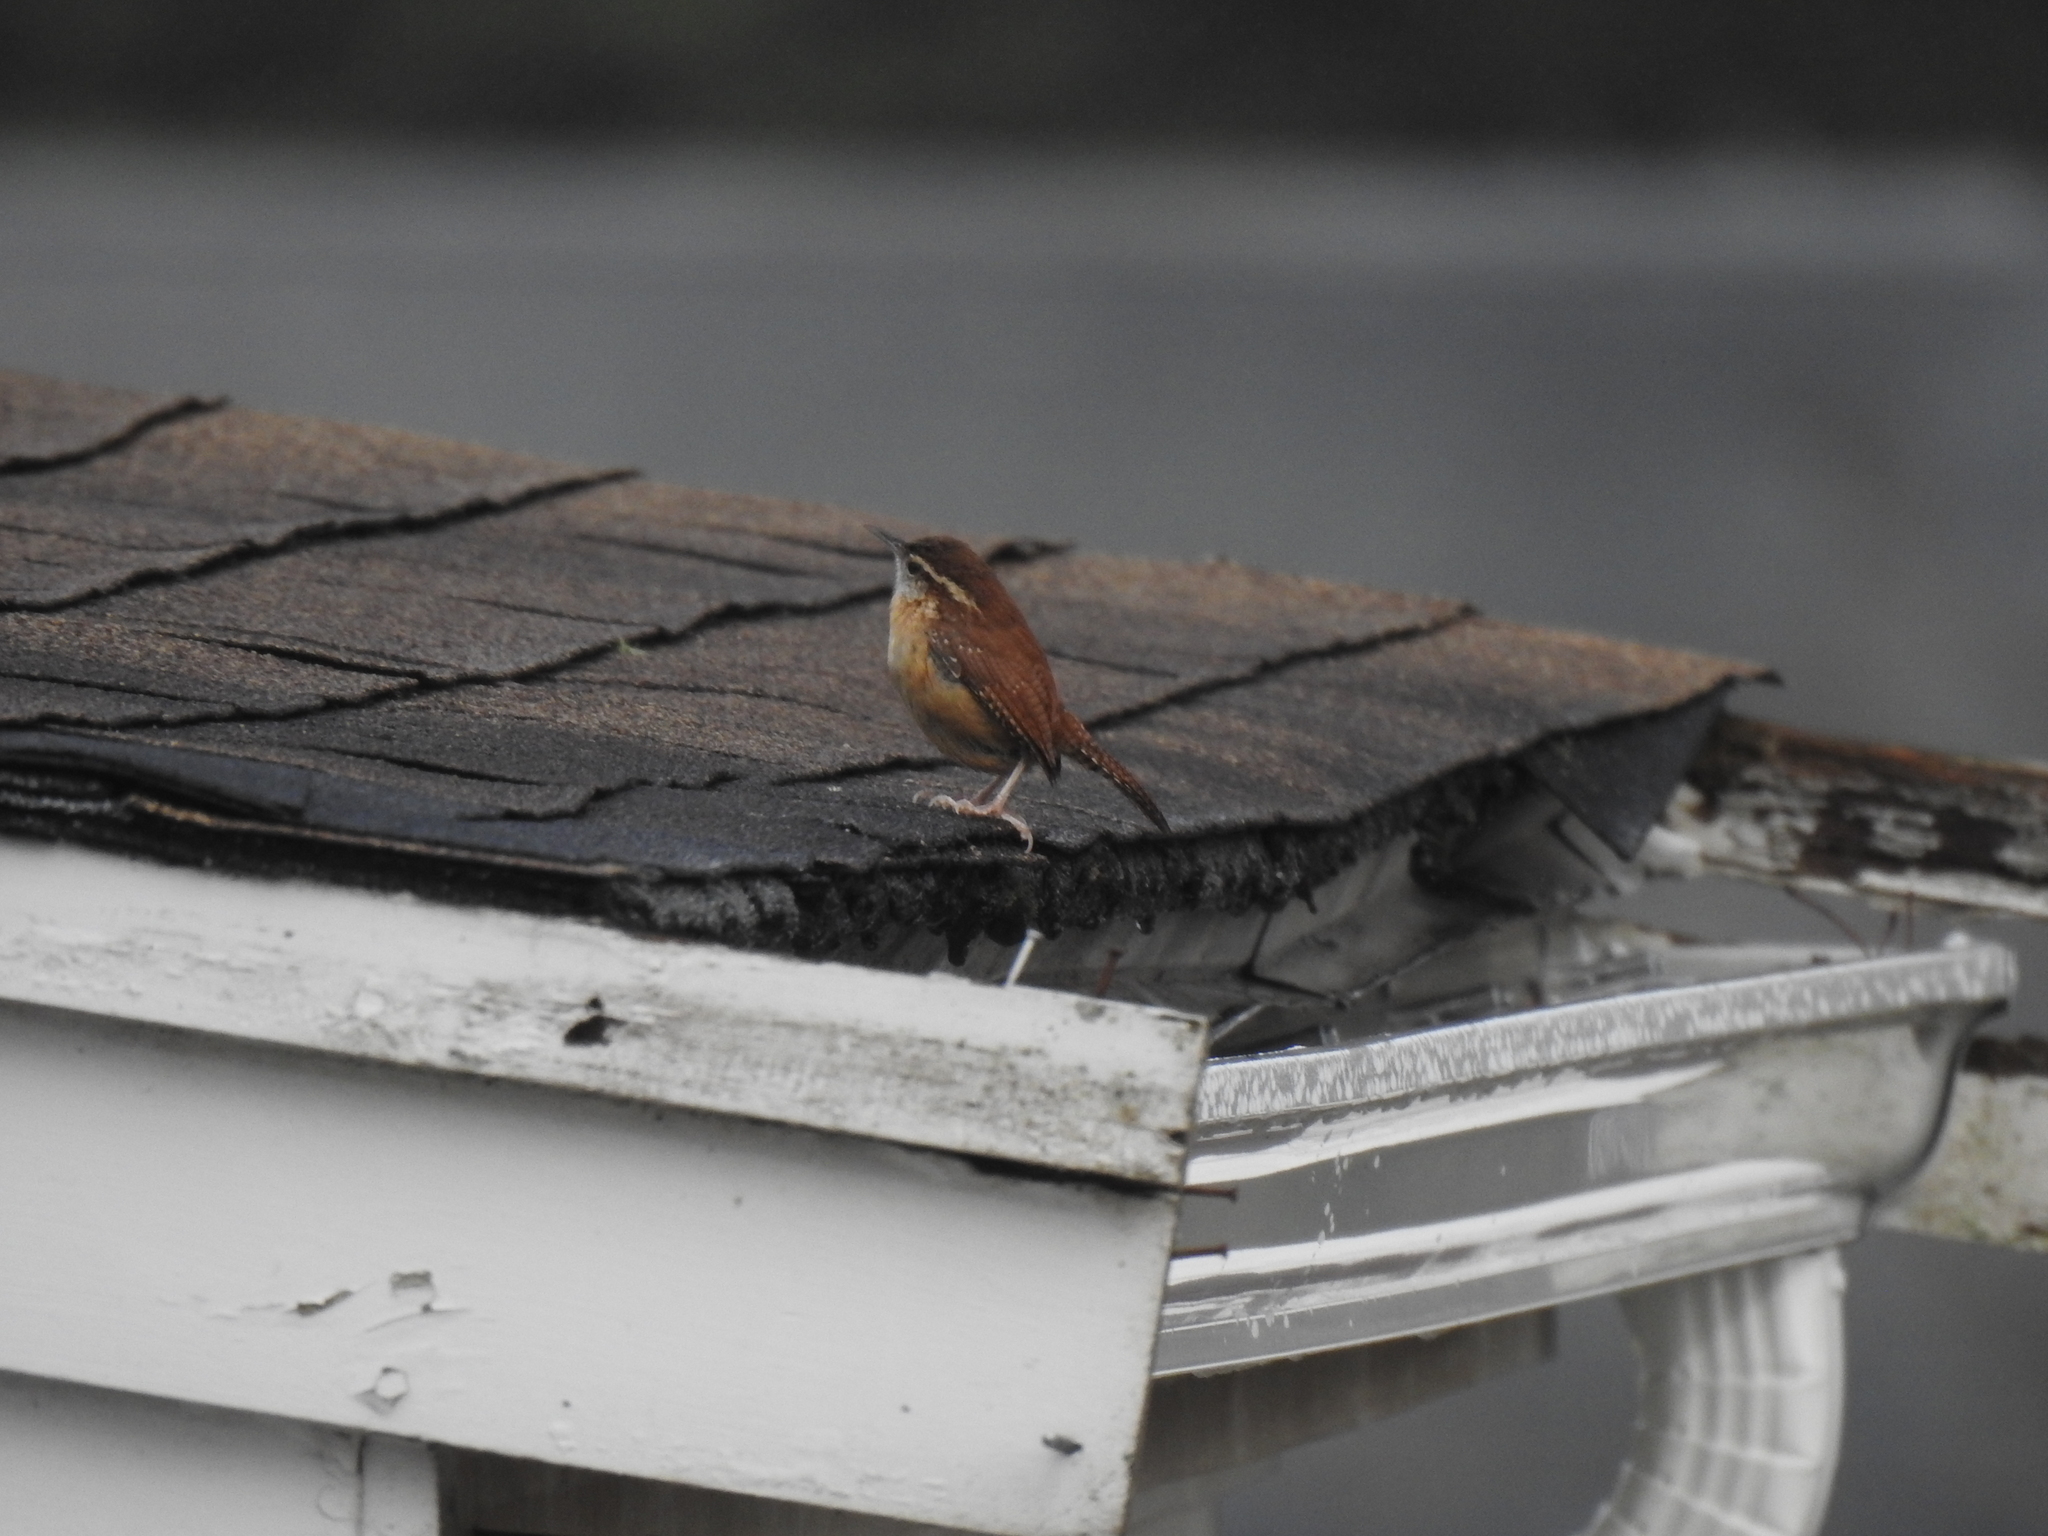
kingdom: Animalia
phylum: Chordata
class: Aves
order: Passeriformes
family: Troglodytidae
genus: Thryothorus
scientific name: Thryothorus ludovicianus
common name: Carolina wren
